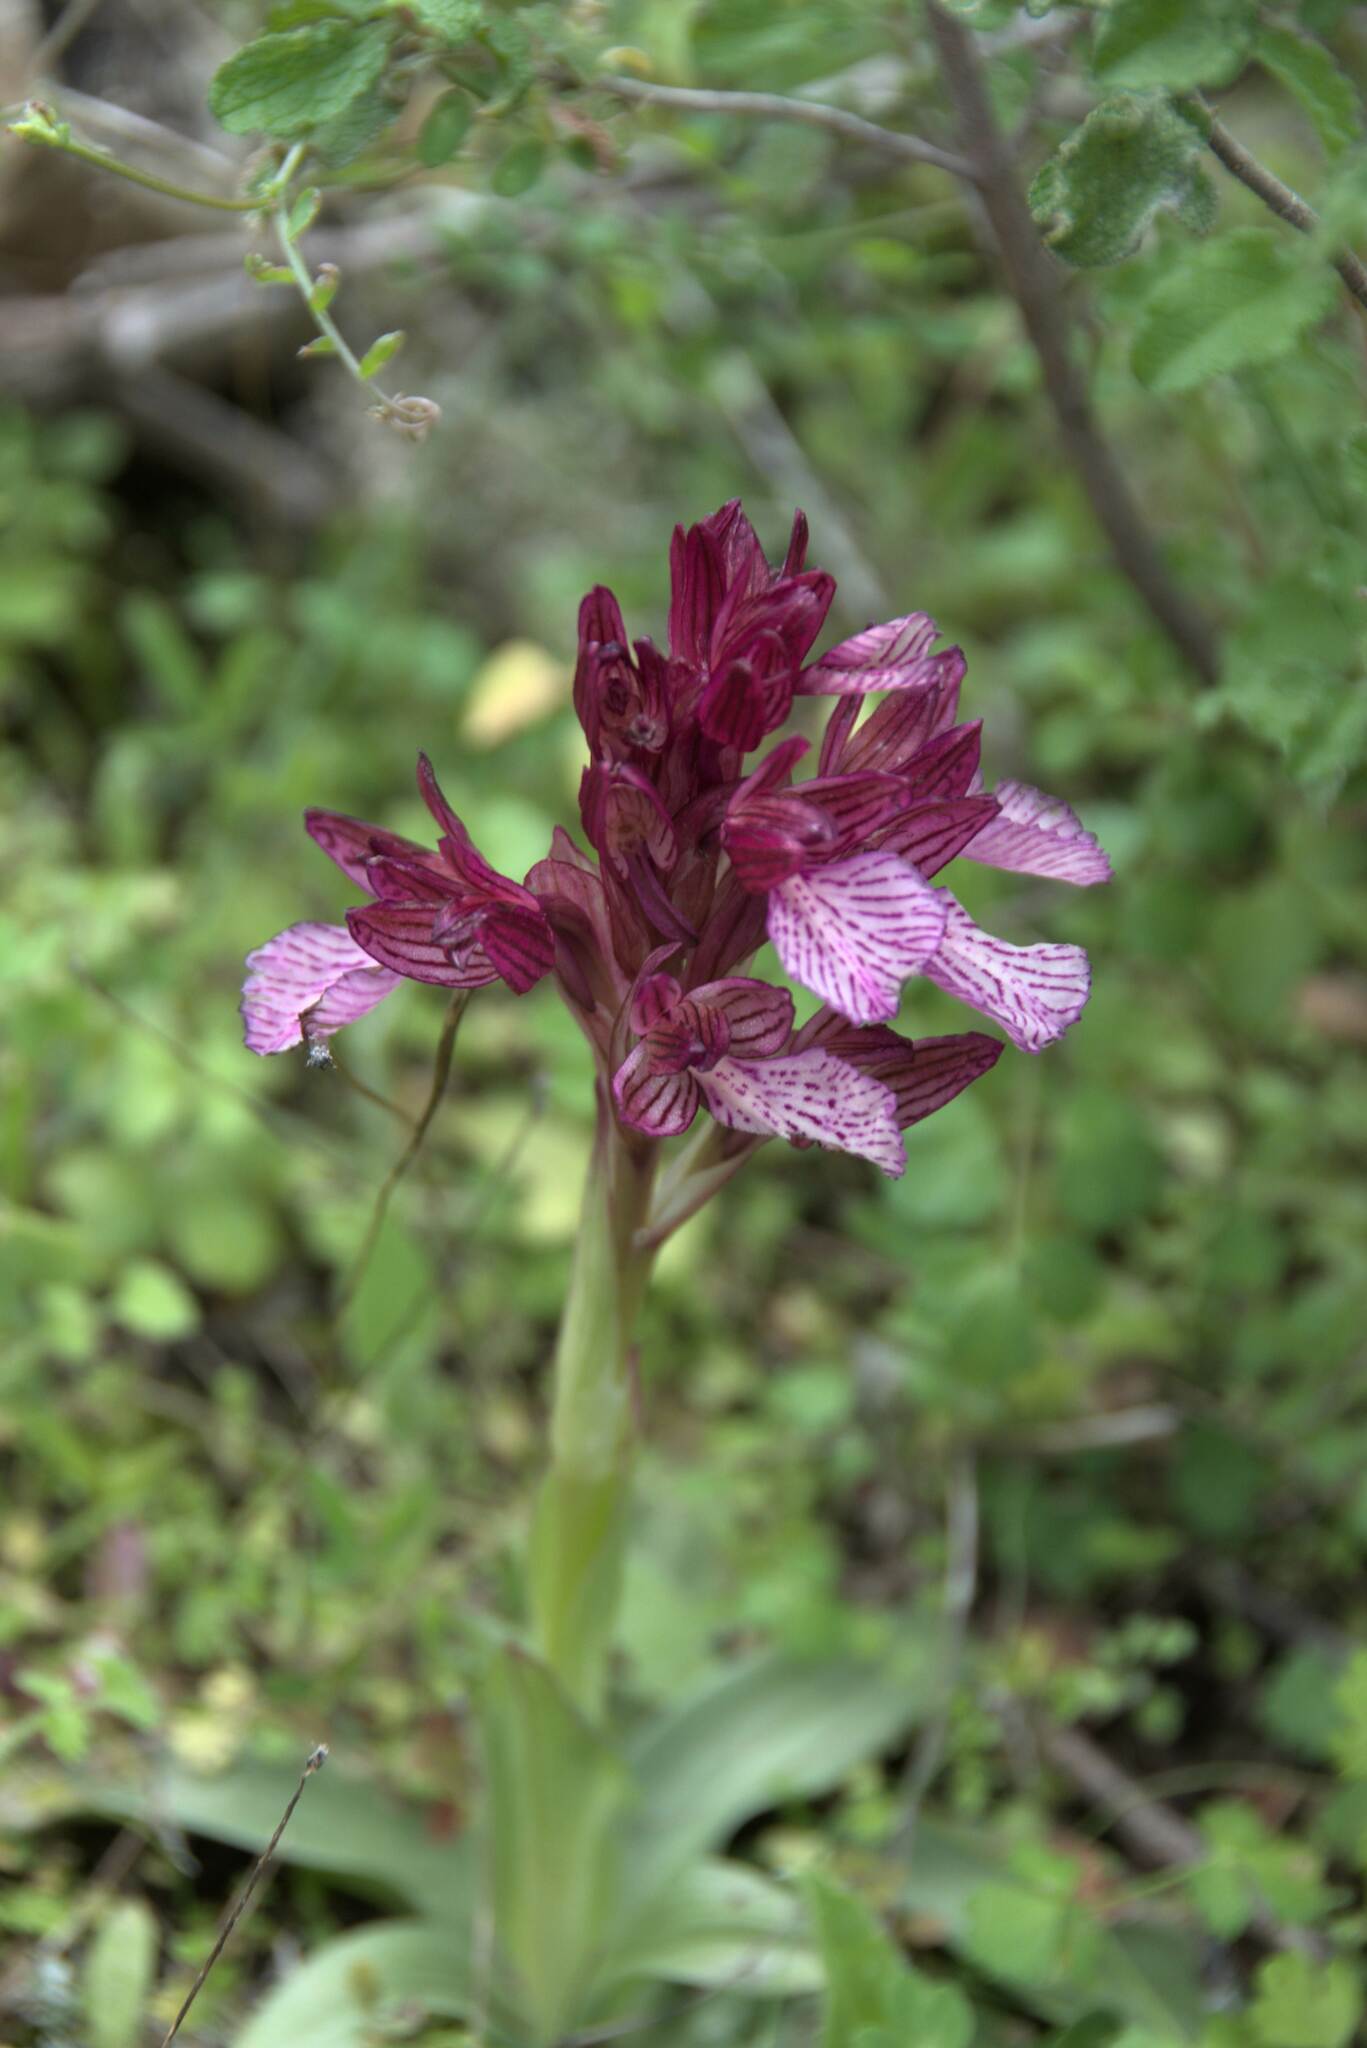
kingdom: Plantae
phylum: Tracheophyta
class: Liliopsida
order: Asparagales
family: Orchidaceae
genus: Anacamptis
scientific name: Anacamptis papilionacea
